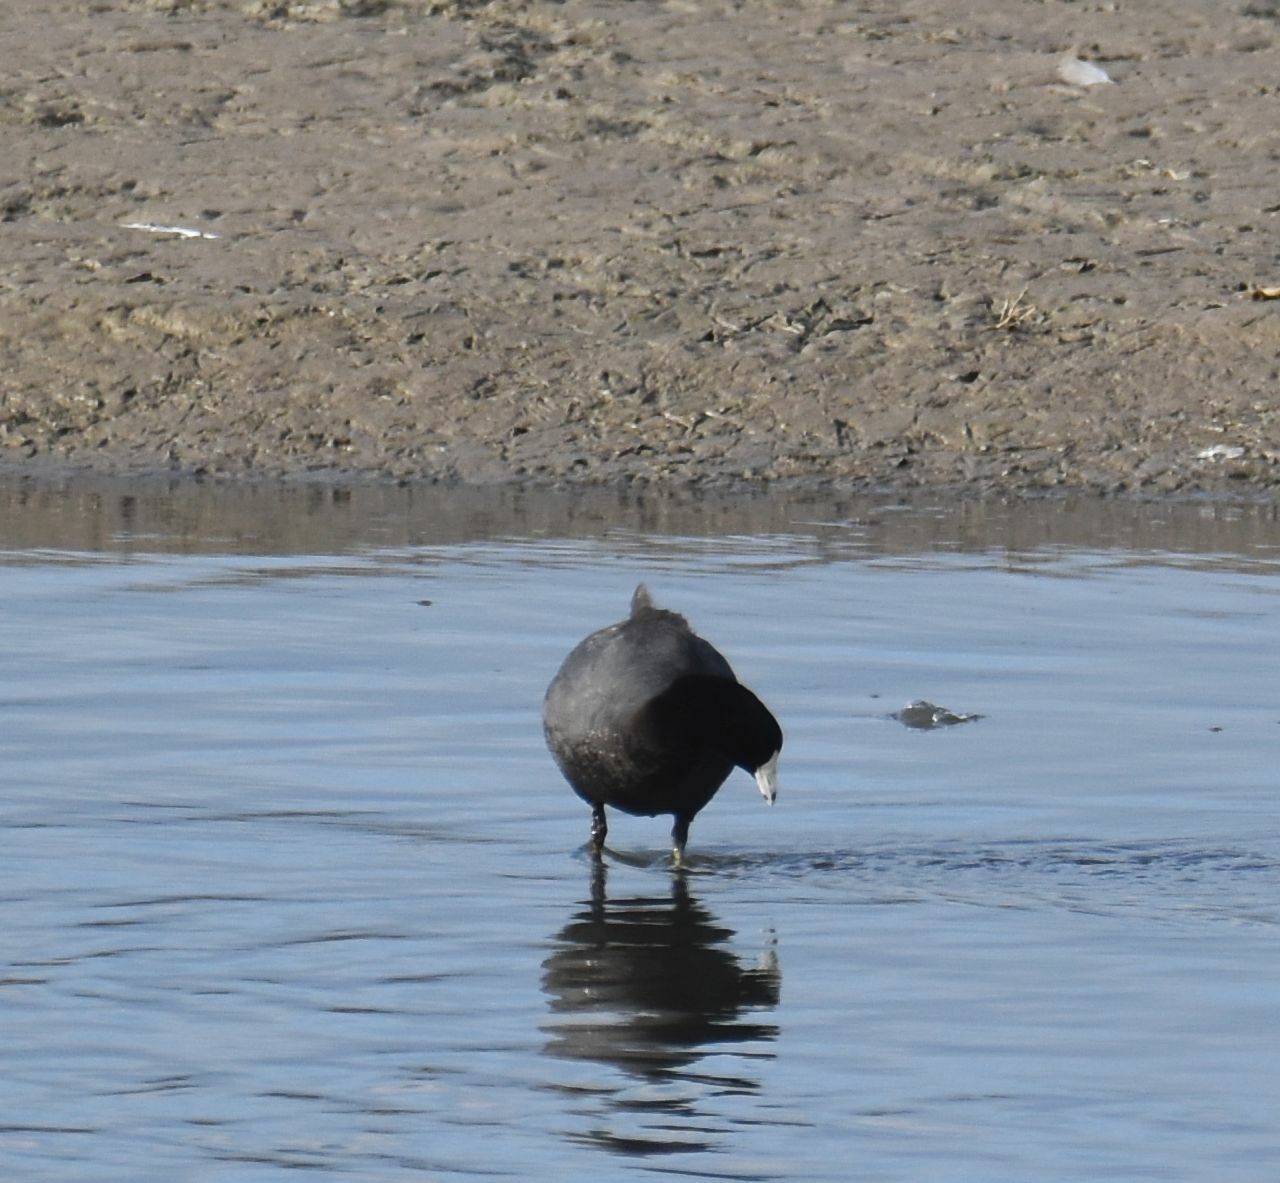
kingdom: Animalia
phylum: Chordata
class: Aves
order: Gruiformes
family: Rallidae
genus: Fulica
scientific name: Fulica americana
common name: American coot
